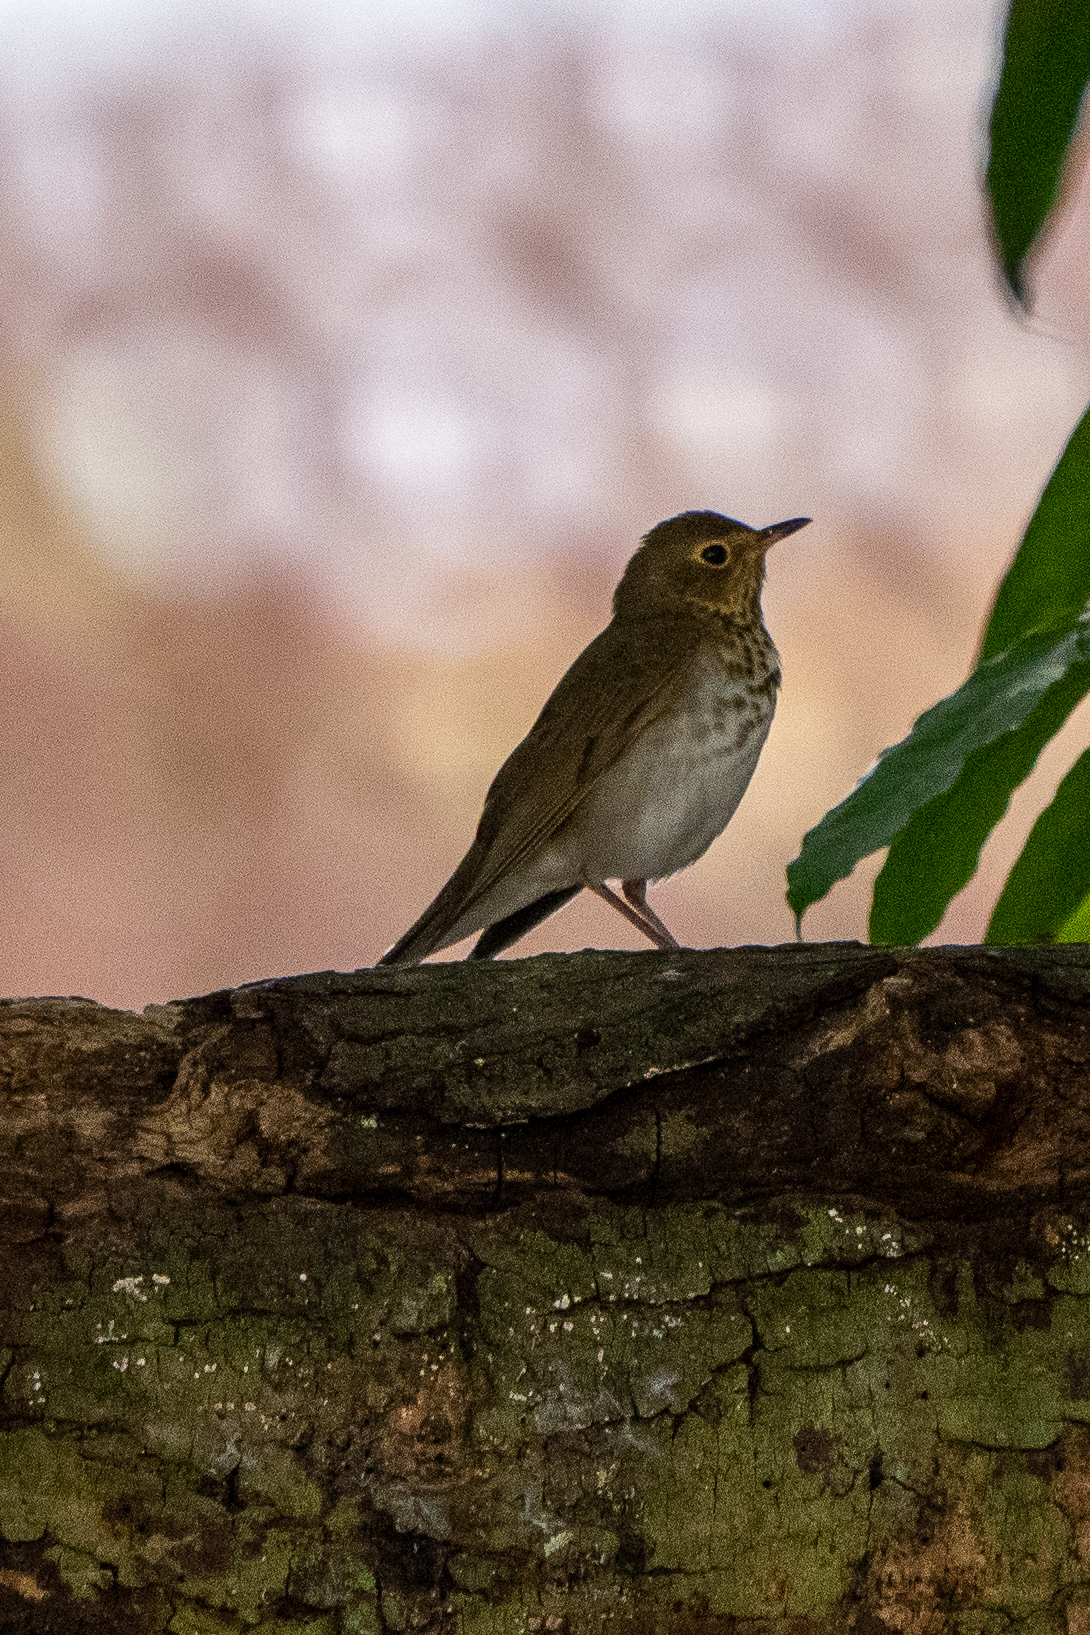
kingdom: Animalia
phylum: Chordata
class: Aves
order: Passeriformes
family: Turdidae
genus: Catharus
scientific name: Catharus ustulatus
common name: Swainson's thrush
